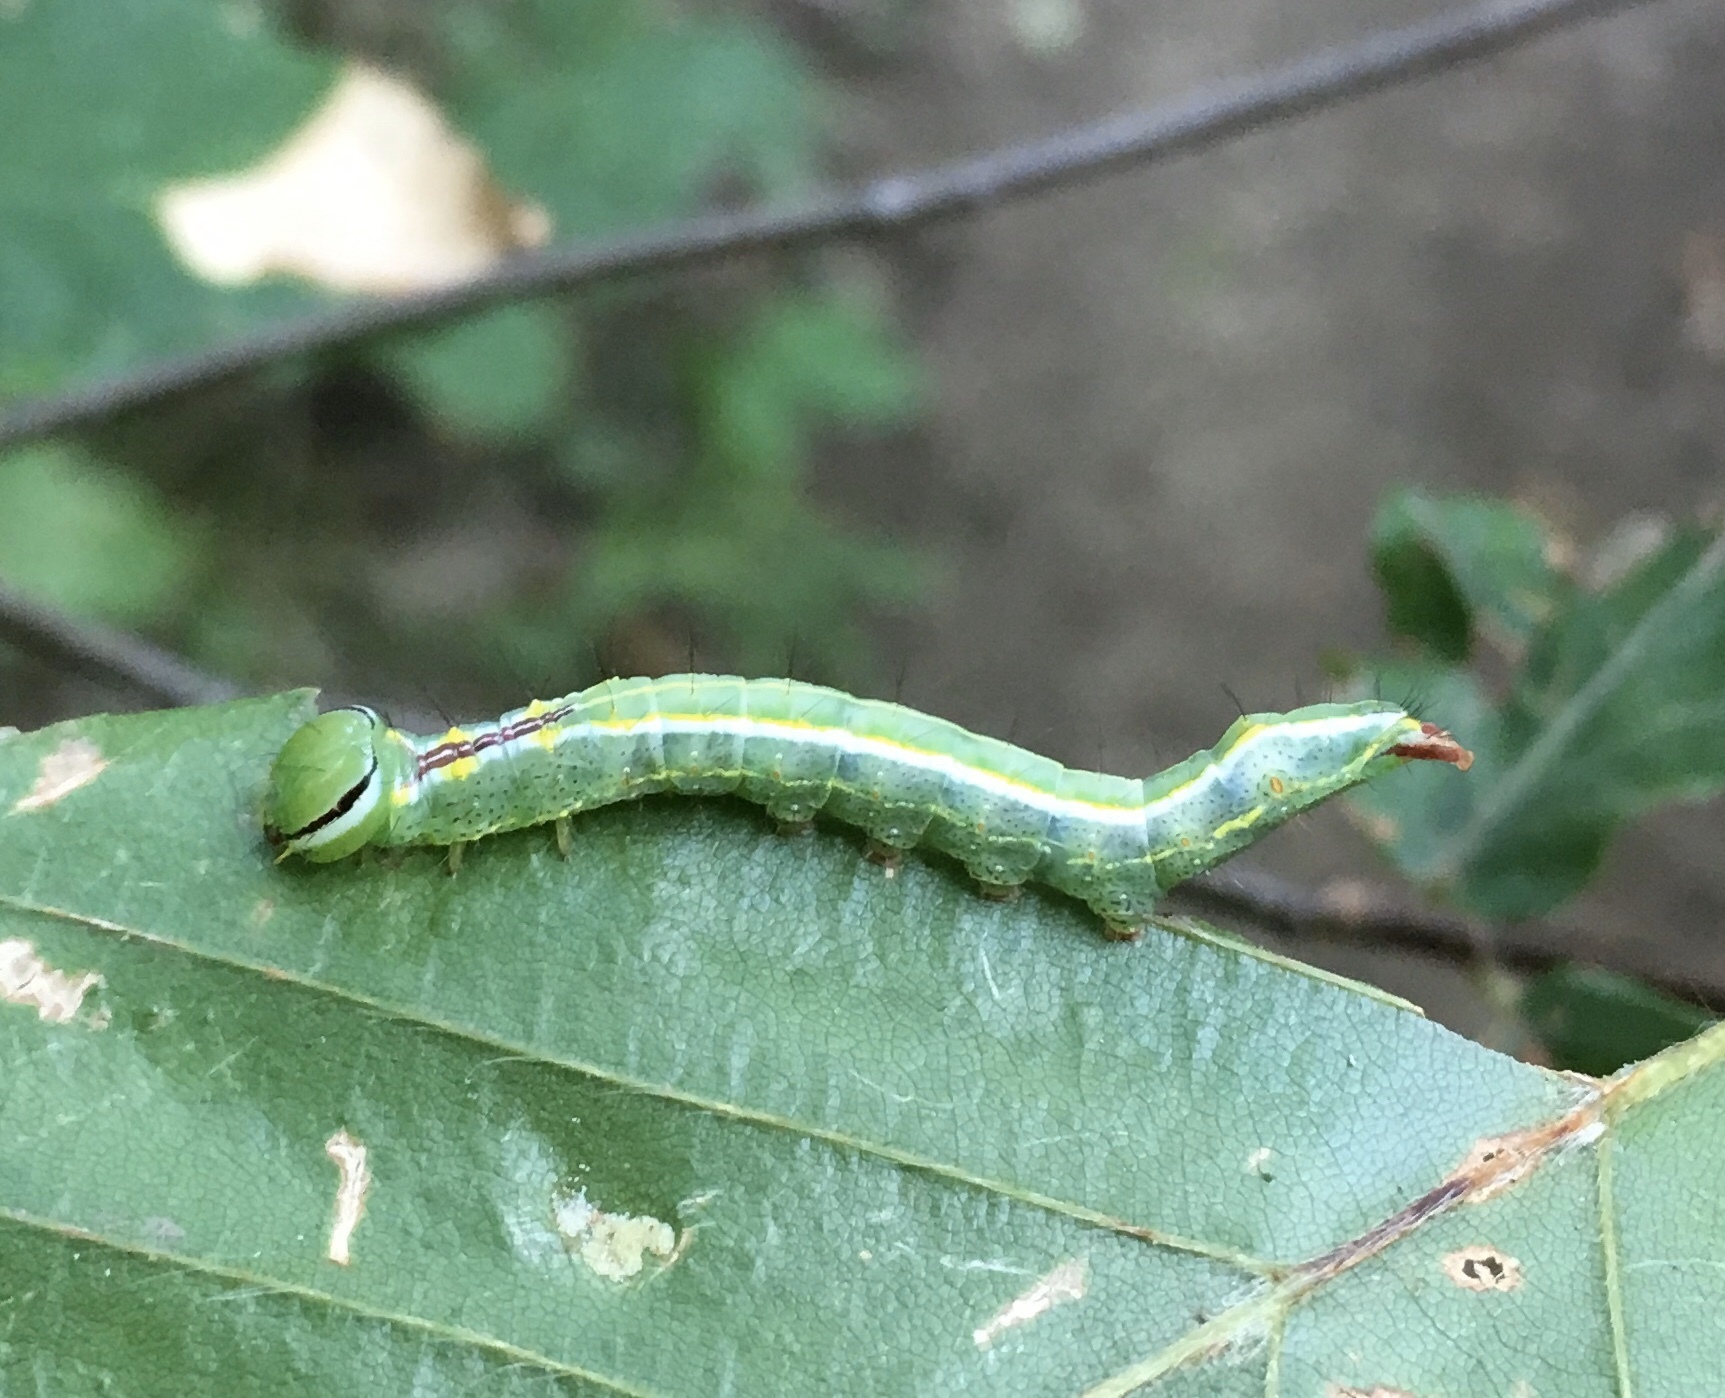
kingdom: Animalia
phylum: Arthropoda
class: Insecta
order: Lepidoptera
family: Notodontidae
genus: Lochmaeus
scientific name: Lochmaeus manteo
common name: Variable oakleaf caterpillar moth
